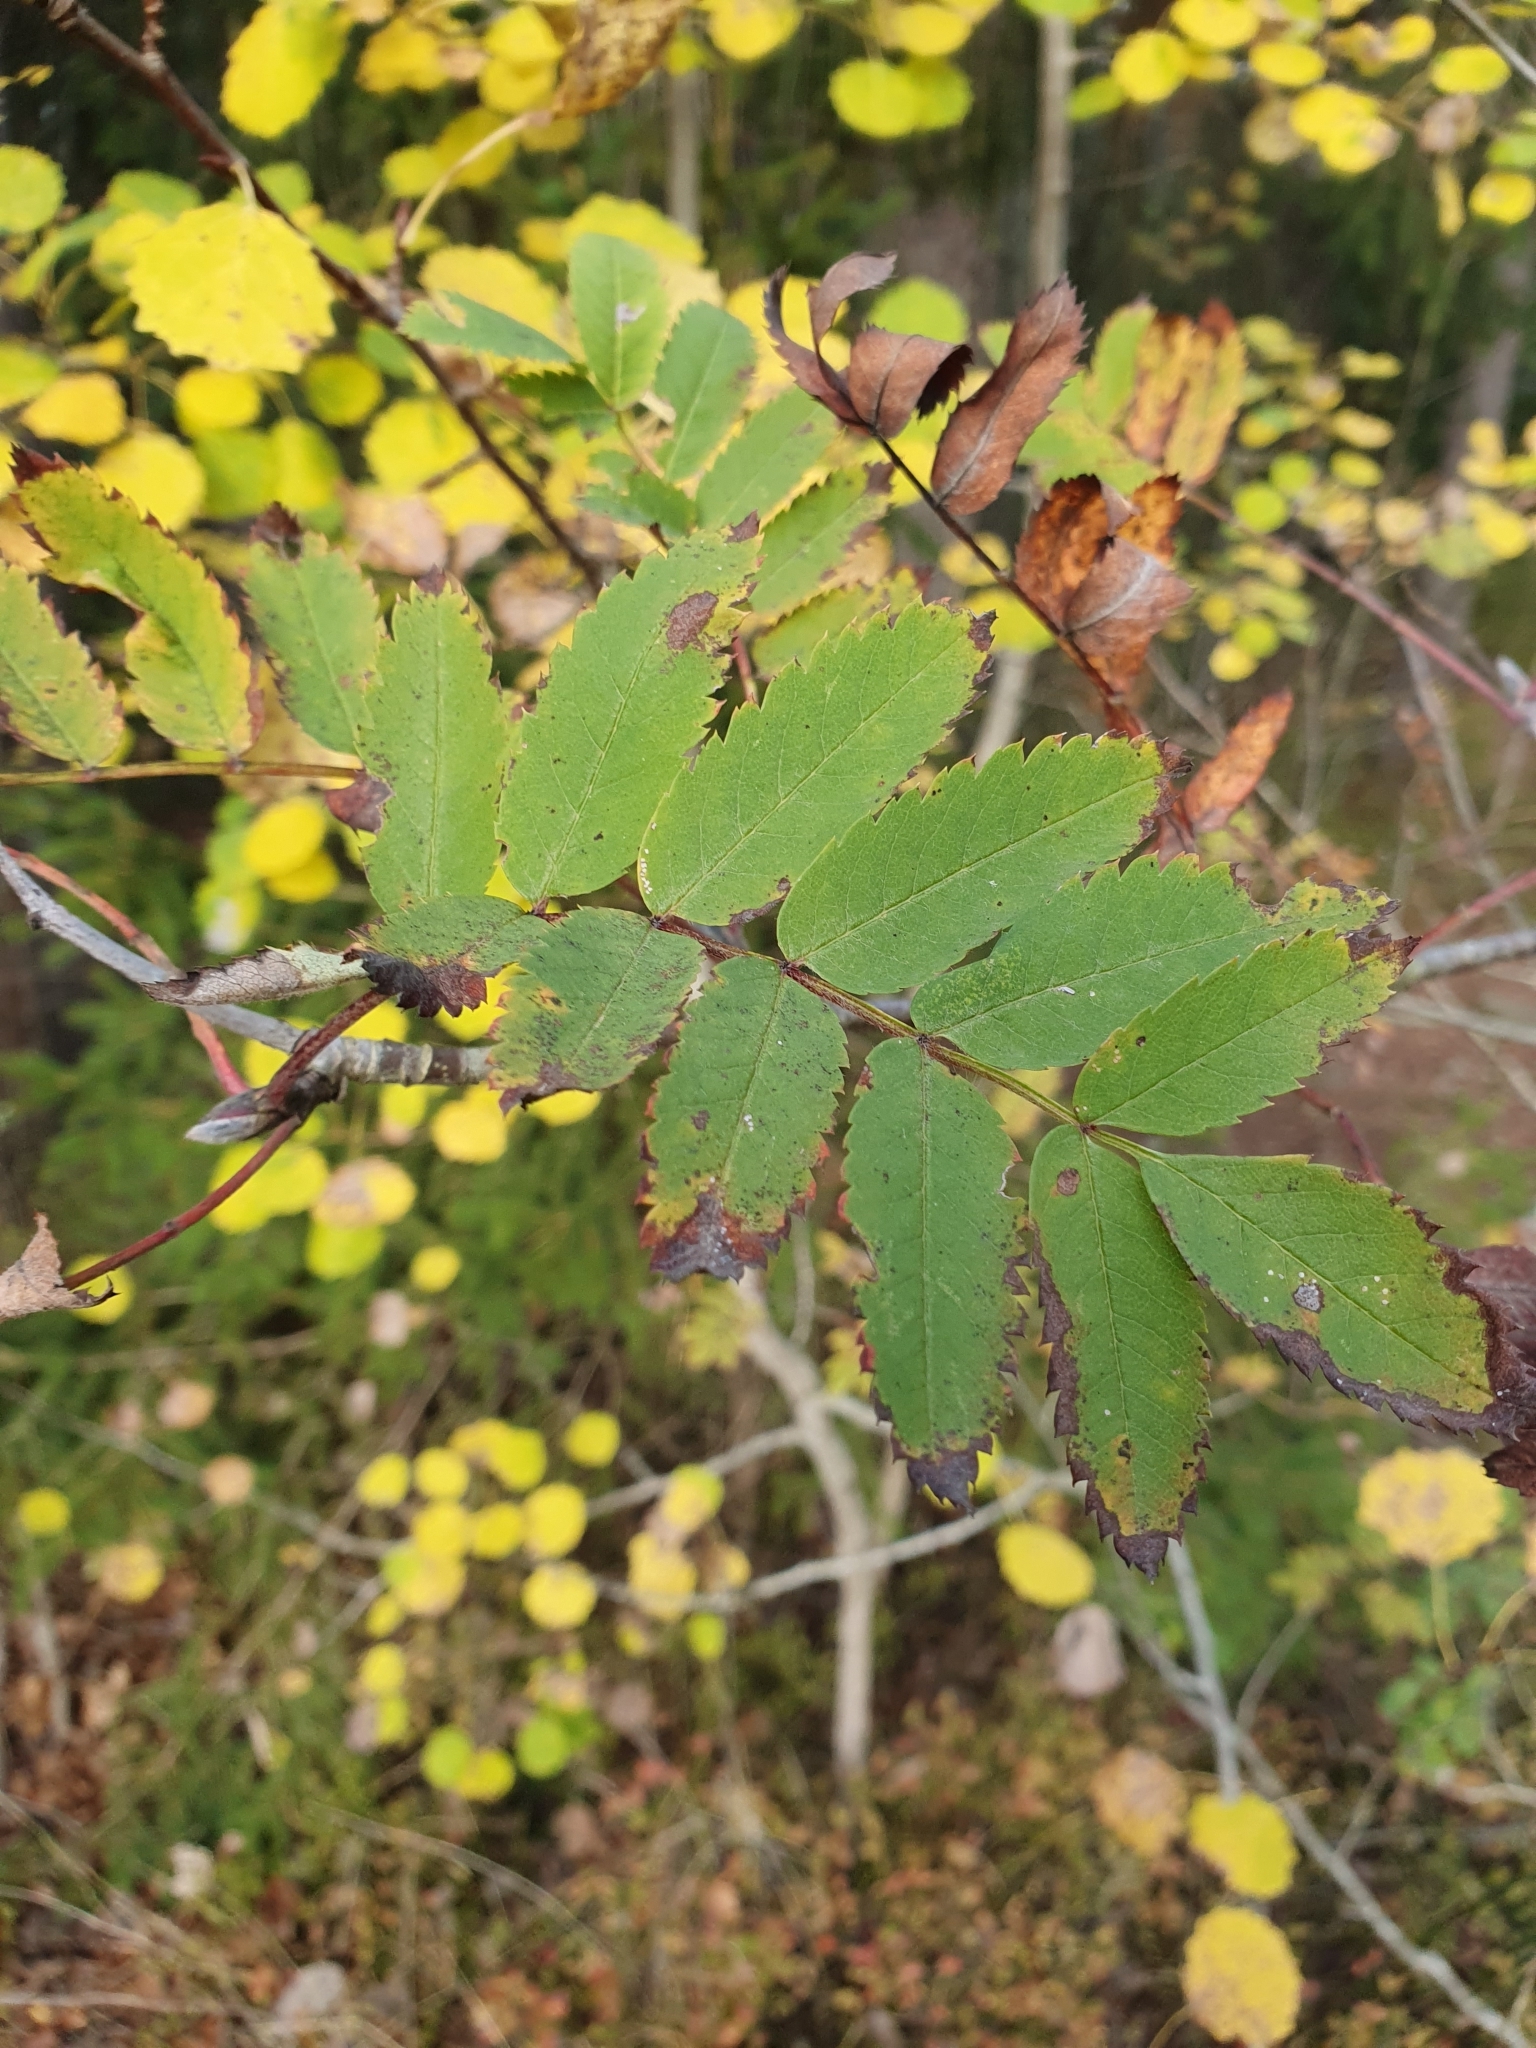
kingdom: Plantae
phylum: Tracheophyta
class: Magnoliopsida
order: Rosales
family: Rosaceae
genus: Sorbus
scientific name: Sorbus aucuparia
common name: Rowan
